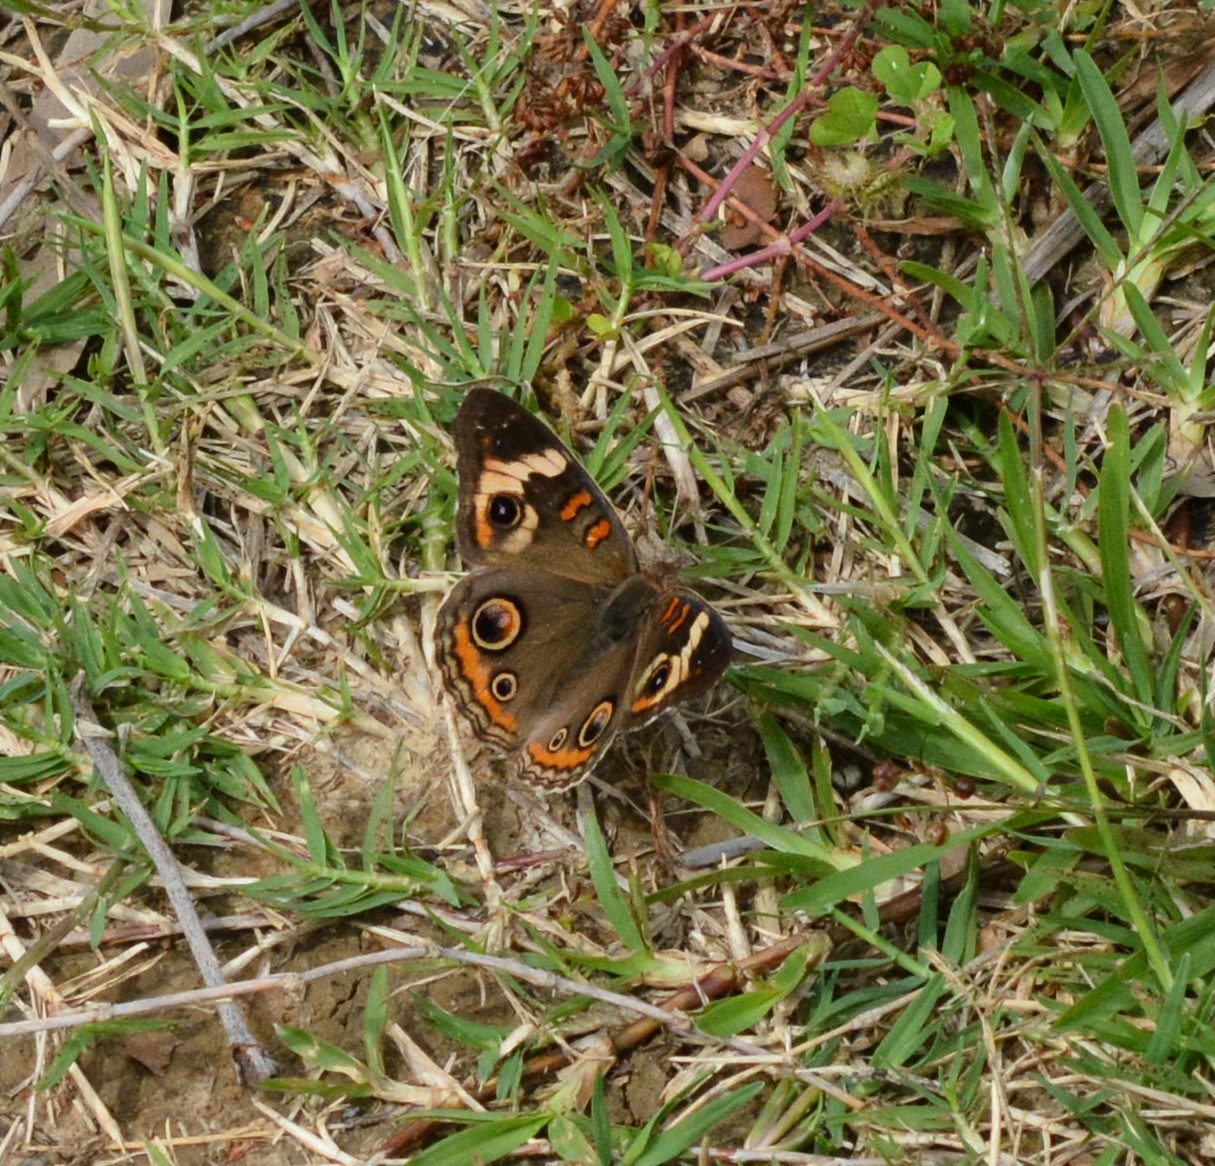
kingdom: Animalia
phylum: Arthropoda
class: Insecta
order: Lepidoptera
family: Nymphalidae
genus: Junonia
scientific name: Junonia coenia
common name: Common buckeye
